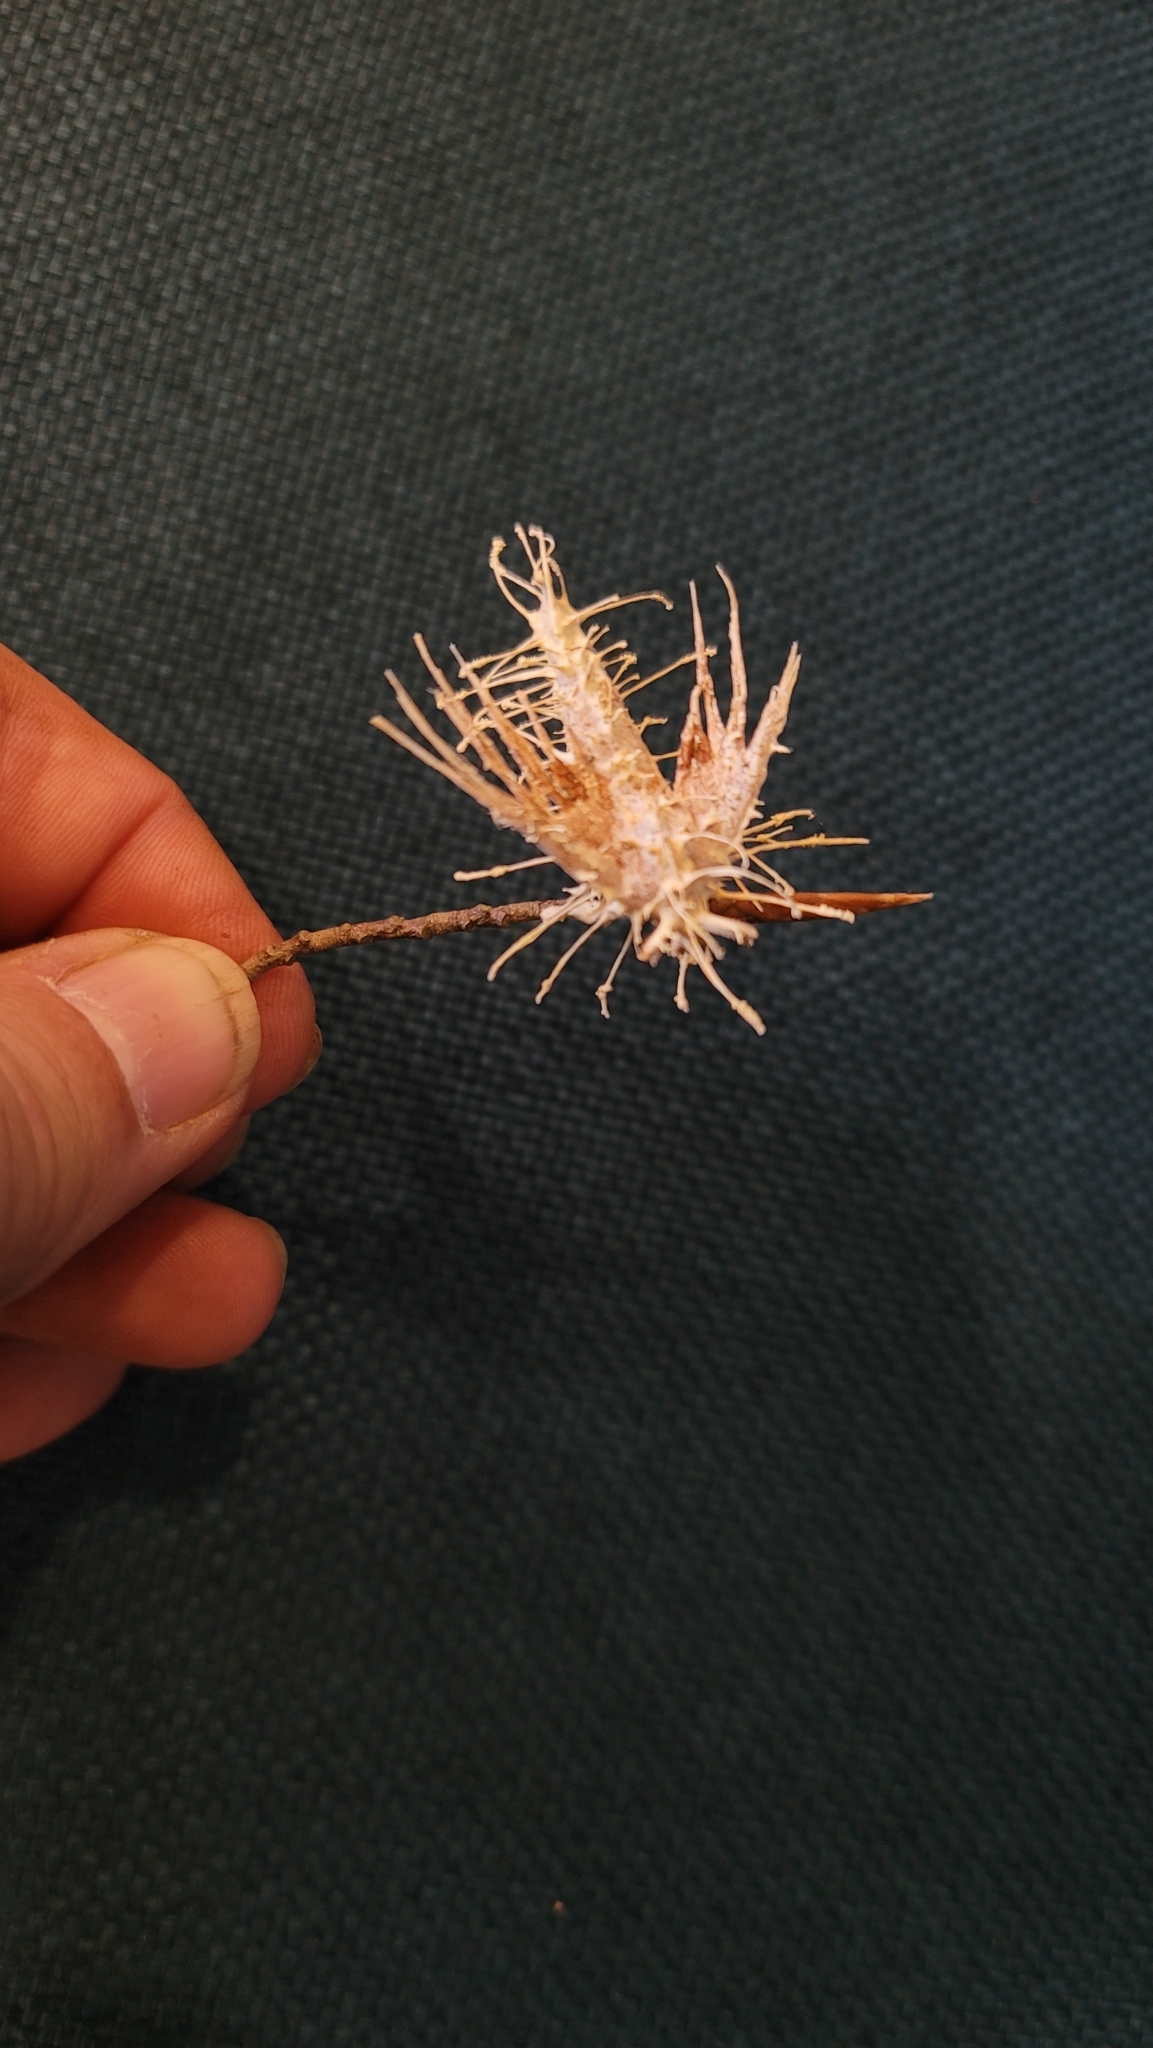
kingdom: Fungi
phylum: Ascomycota
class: Sordariomycetes
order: Hypocreales
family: Cordycipitaceae
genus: Akanthomyces
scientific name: Akanthomyces aculeatus
